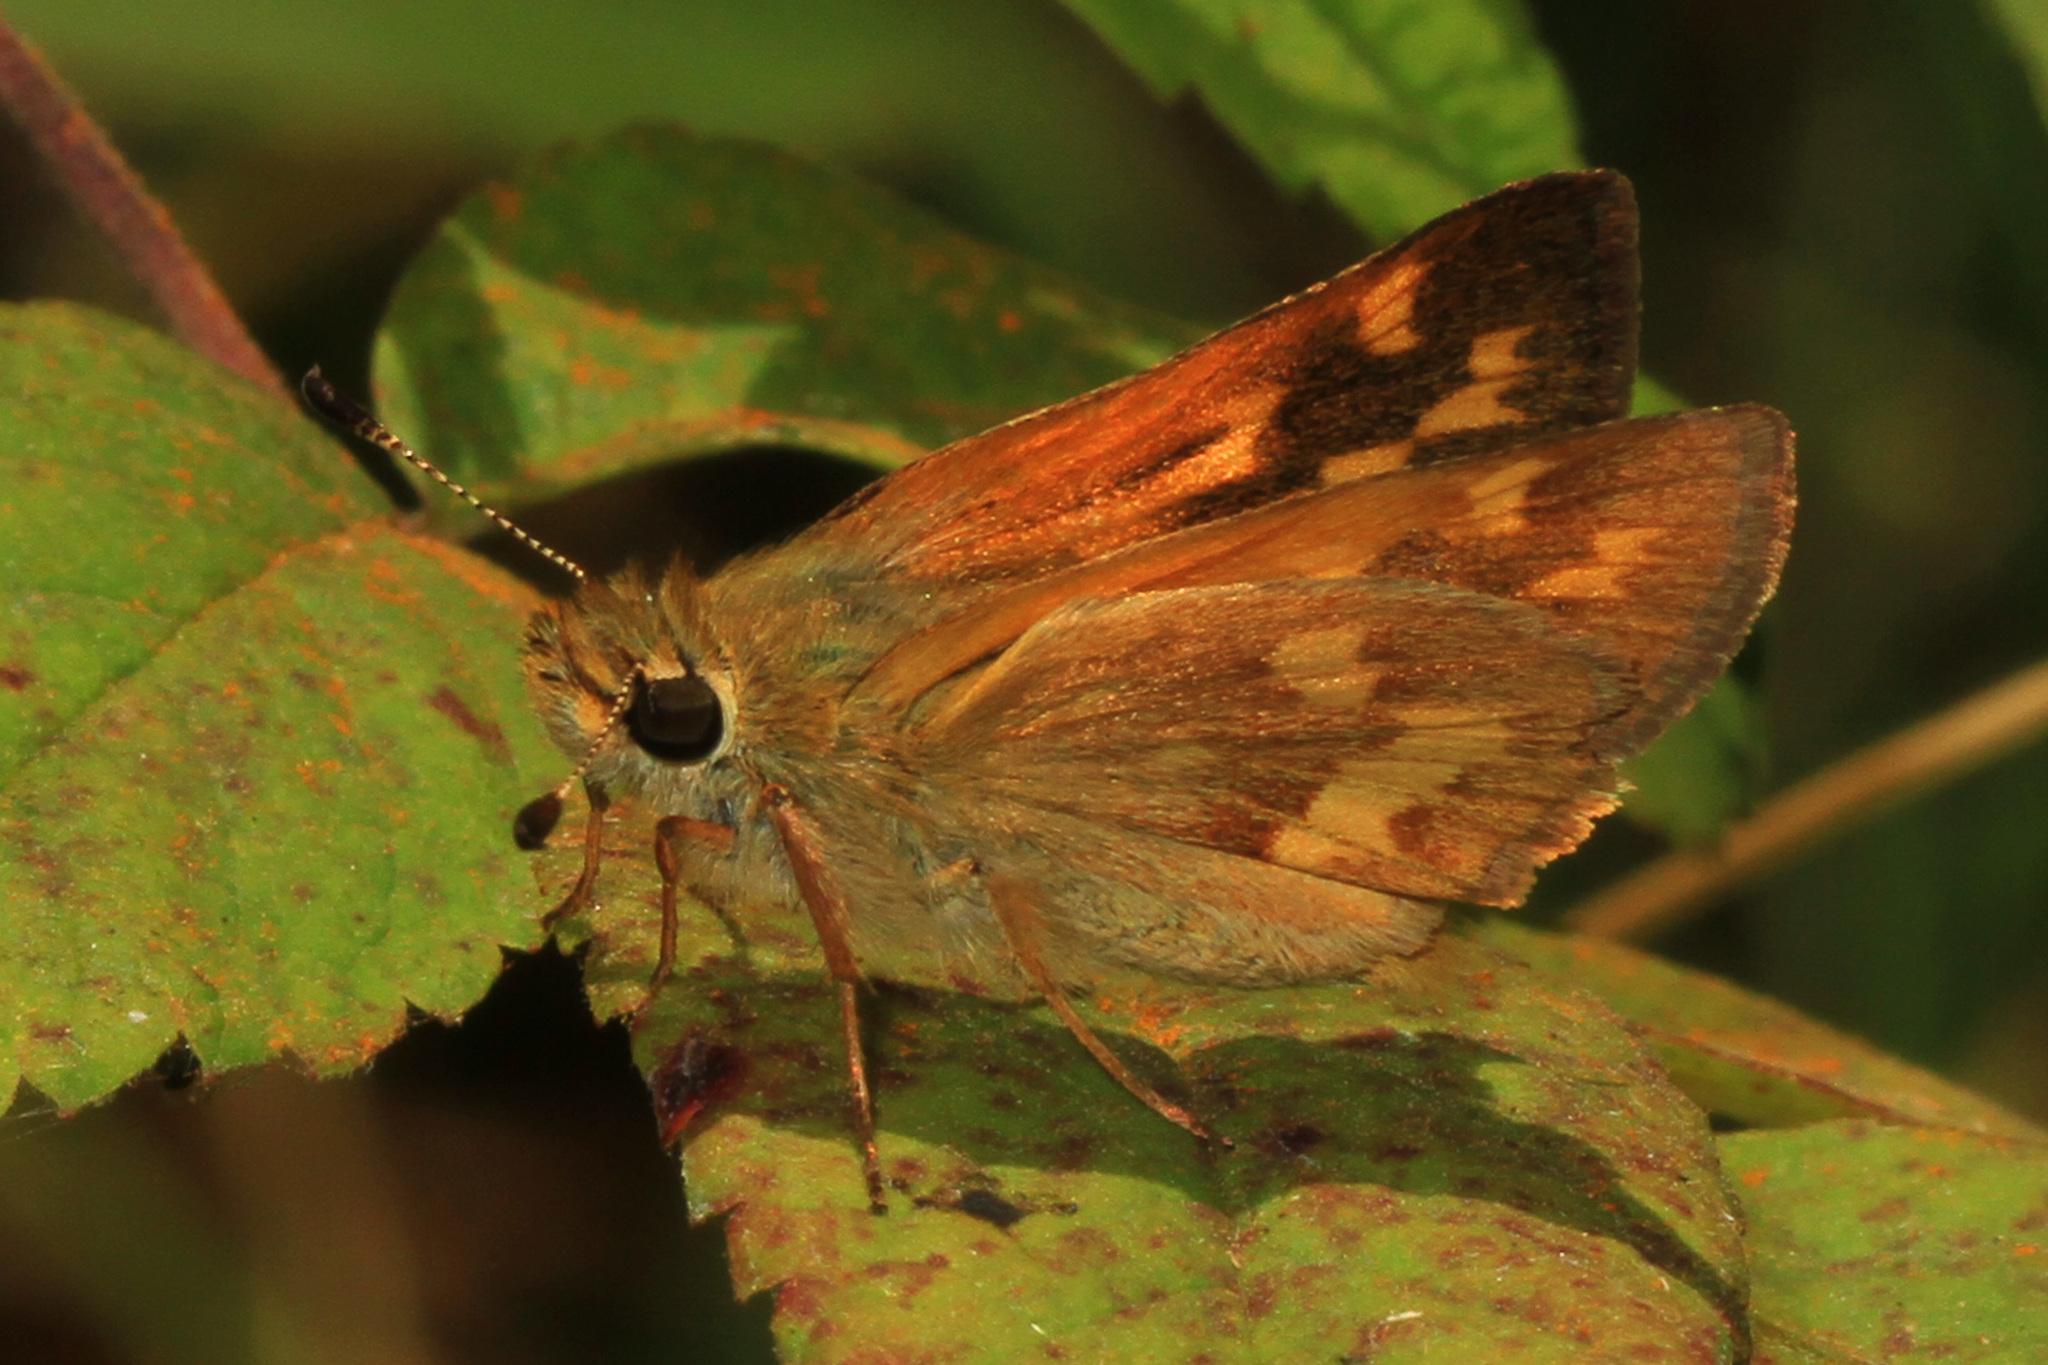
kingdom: Animalia
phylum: Arthropoda
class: Insecta
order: Lepidoptera
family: Hesperiidae
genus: Ochlodes
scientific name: Ochlodes sylvanoides
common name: Woodland skipper
